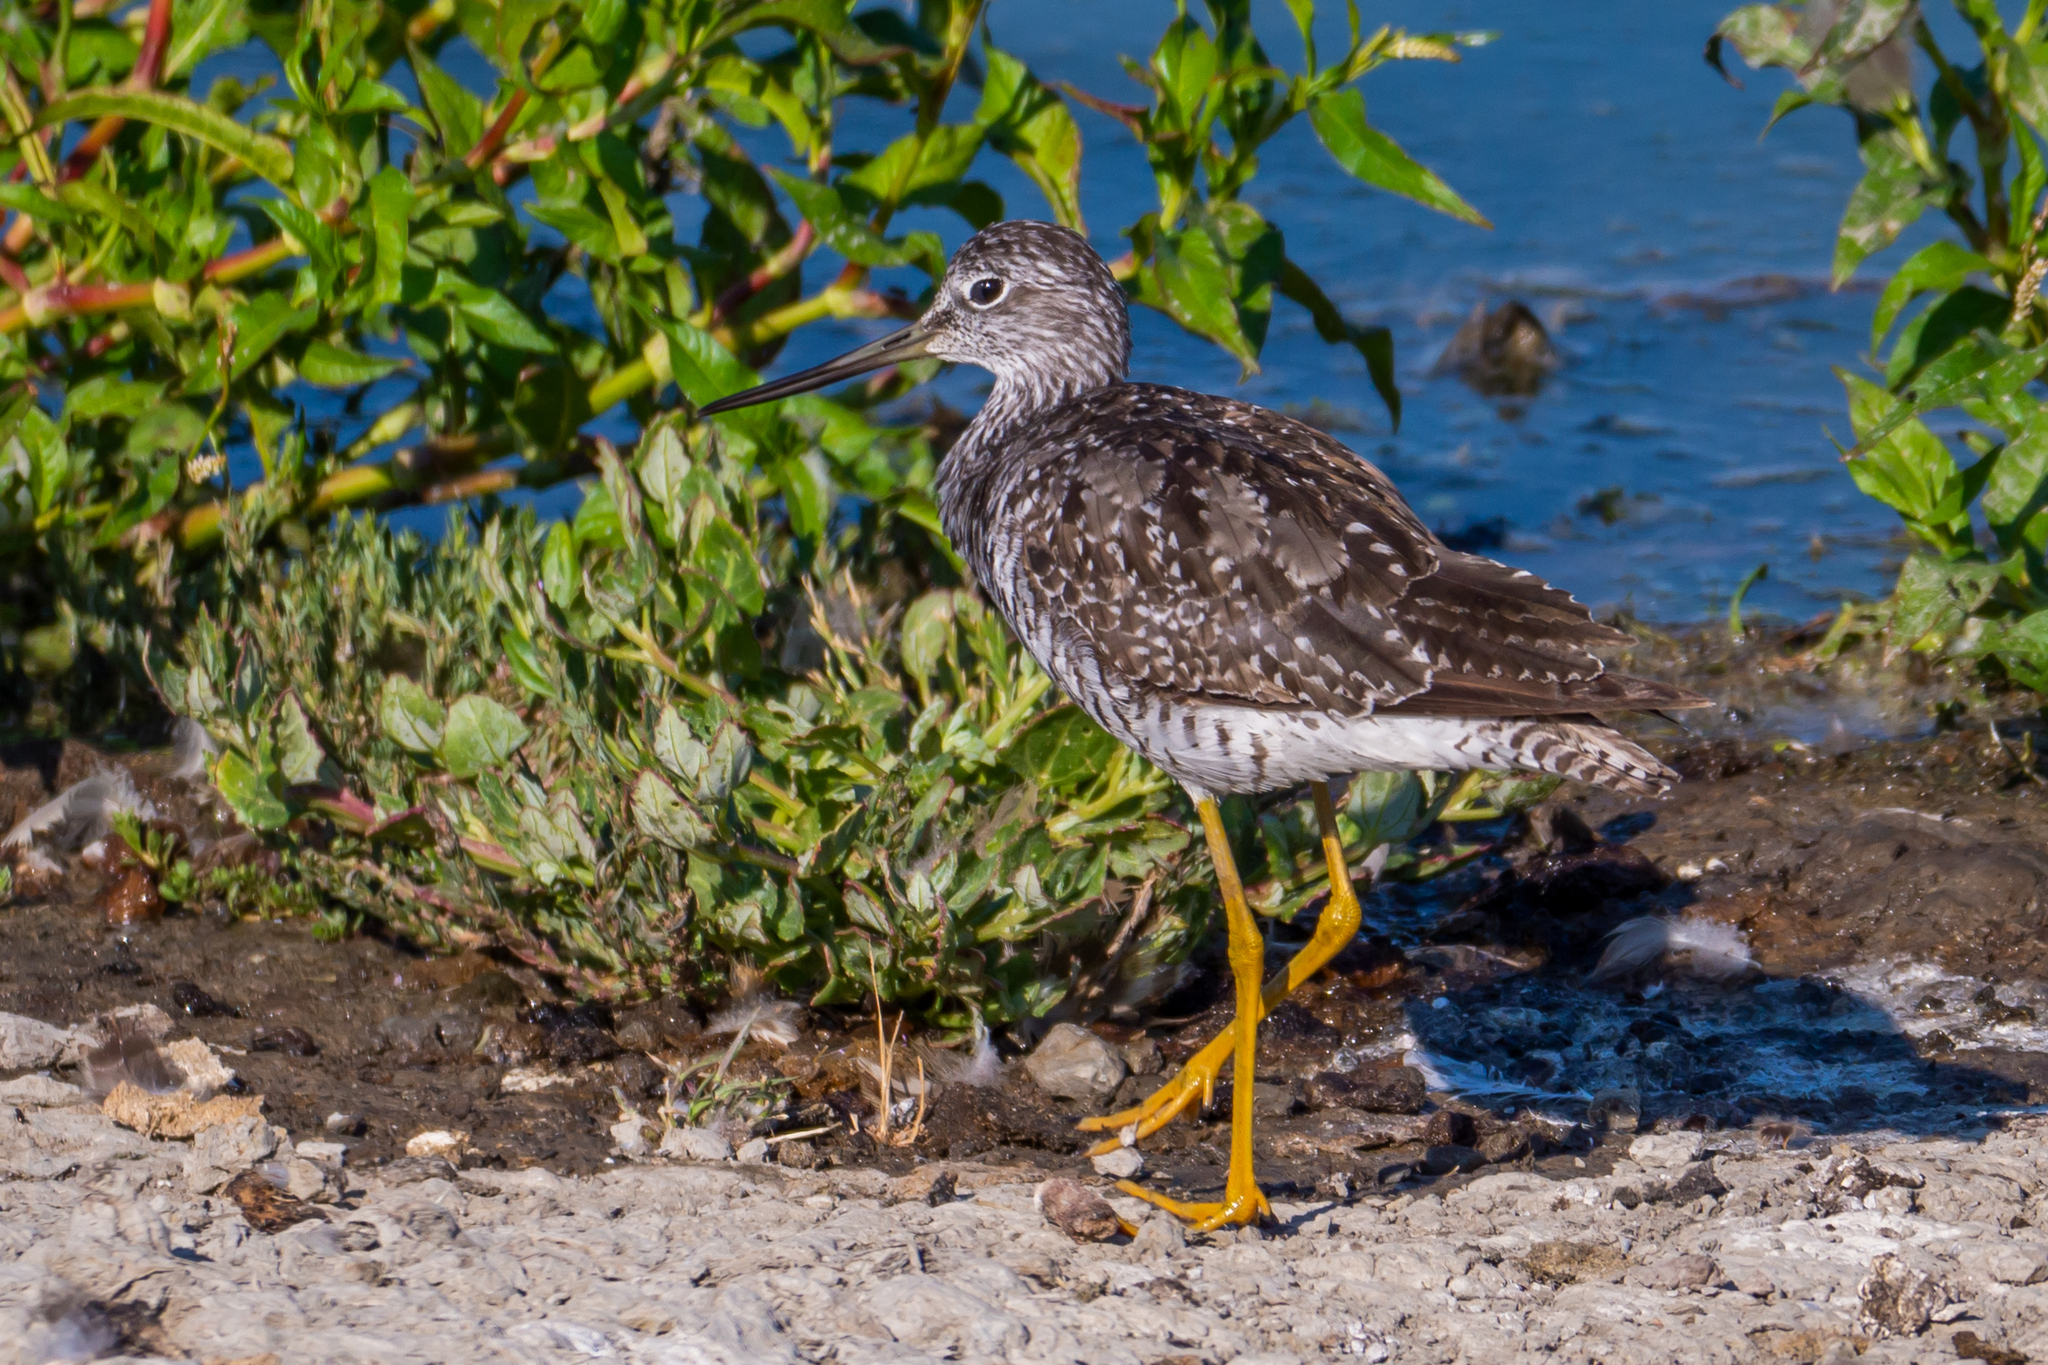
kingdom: Animalia
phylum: Chordata
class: Aves
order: Charadriiformes
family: Scolopacidae
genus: Tringa
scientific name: Tringa melanoleuca
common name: Greater yellowlegs
